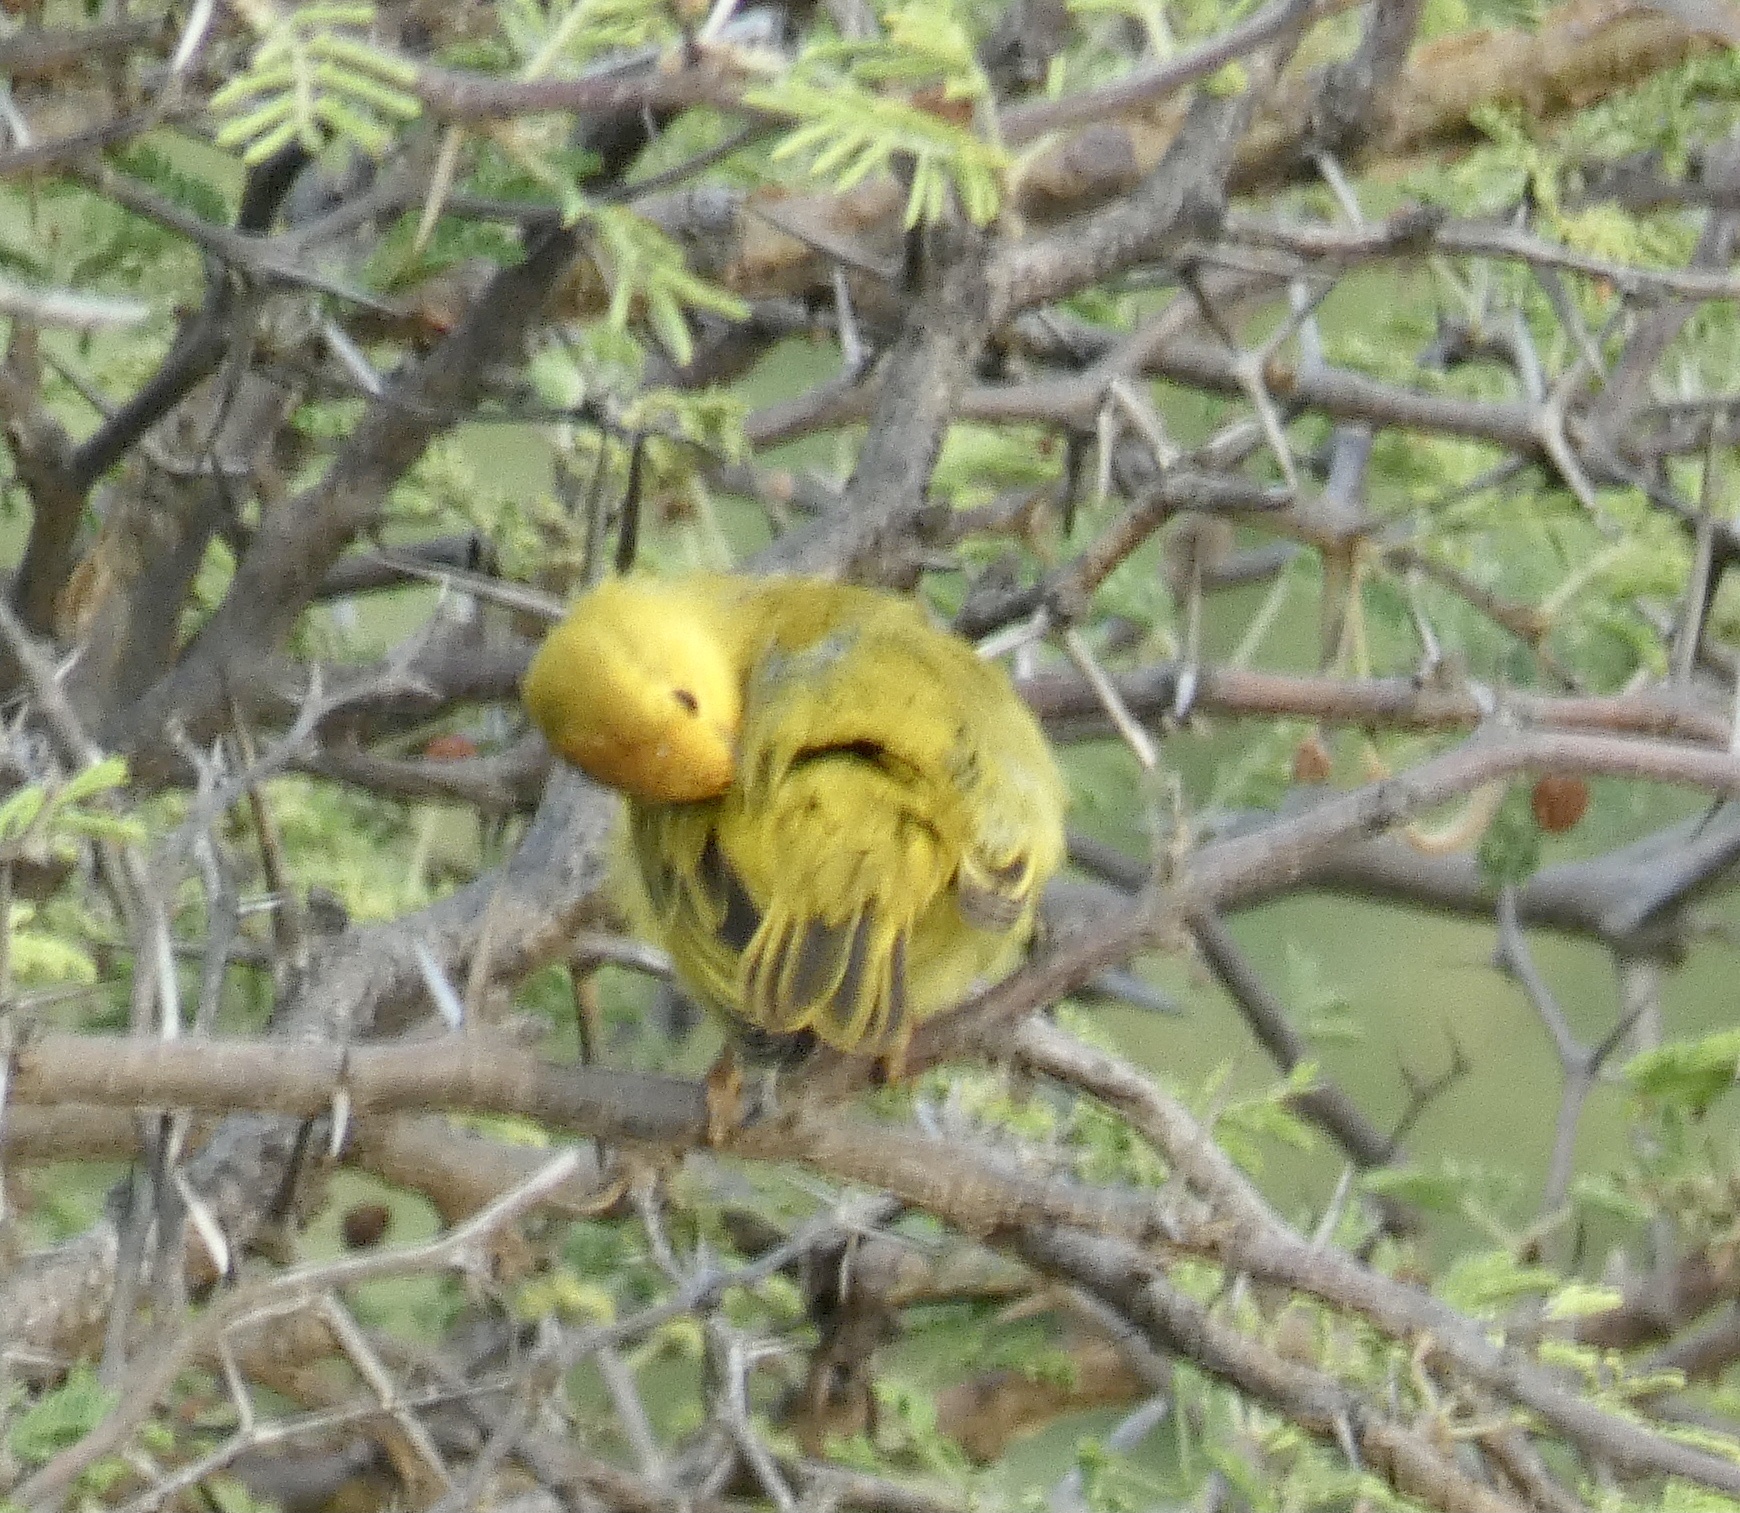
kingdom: Animalia
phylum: Chordata
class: Aves
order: Passeriformes
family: Parulidae
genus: Setophaga
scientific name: Setophaga petechia
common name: Yellow warbler
